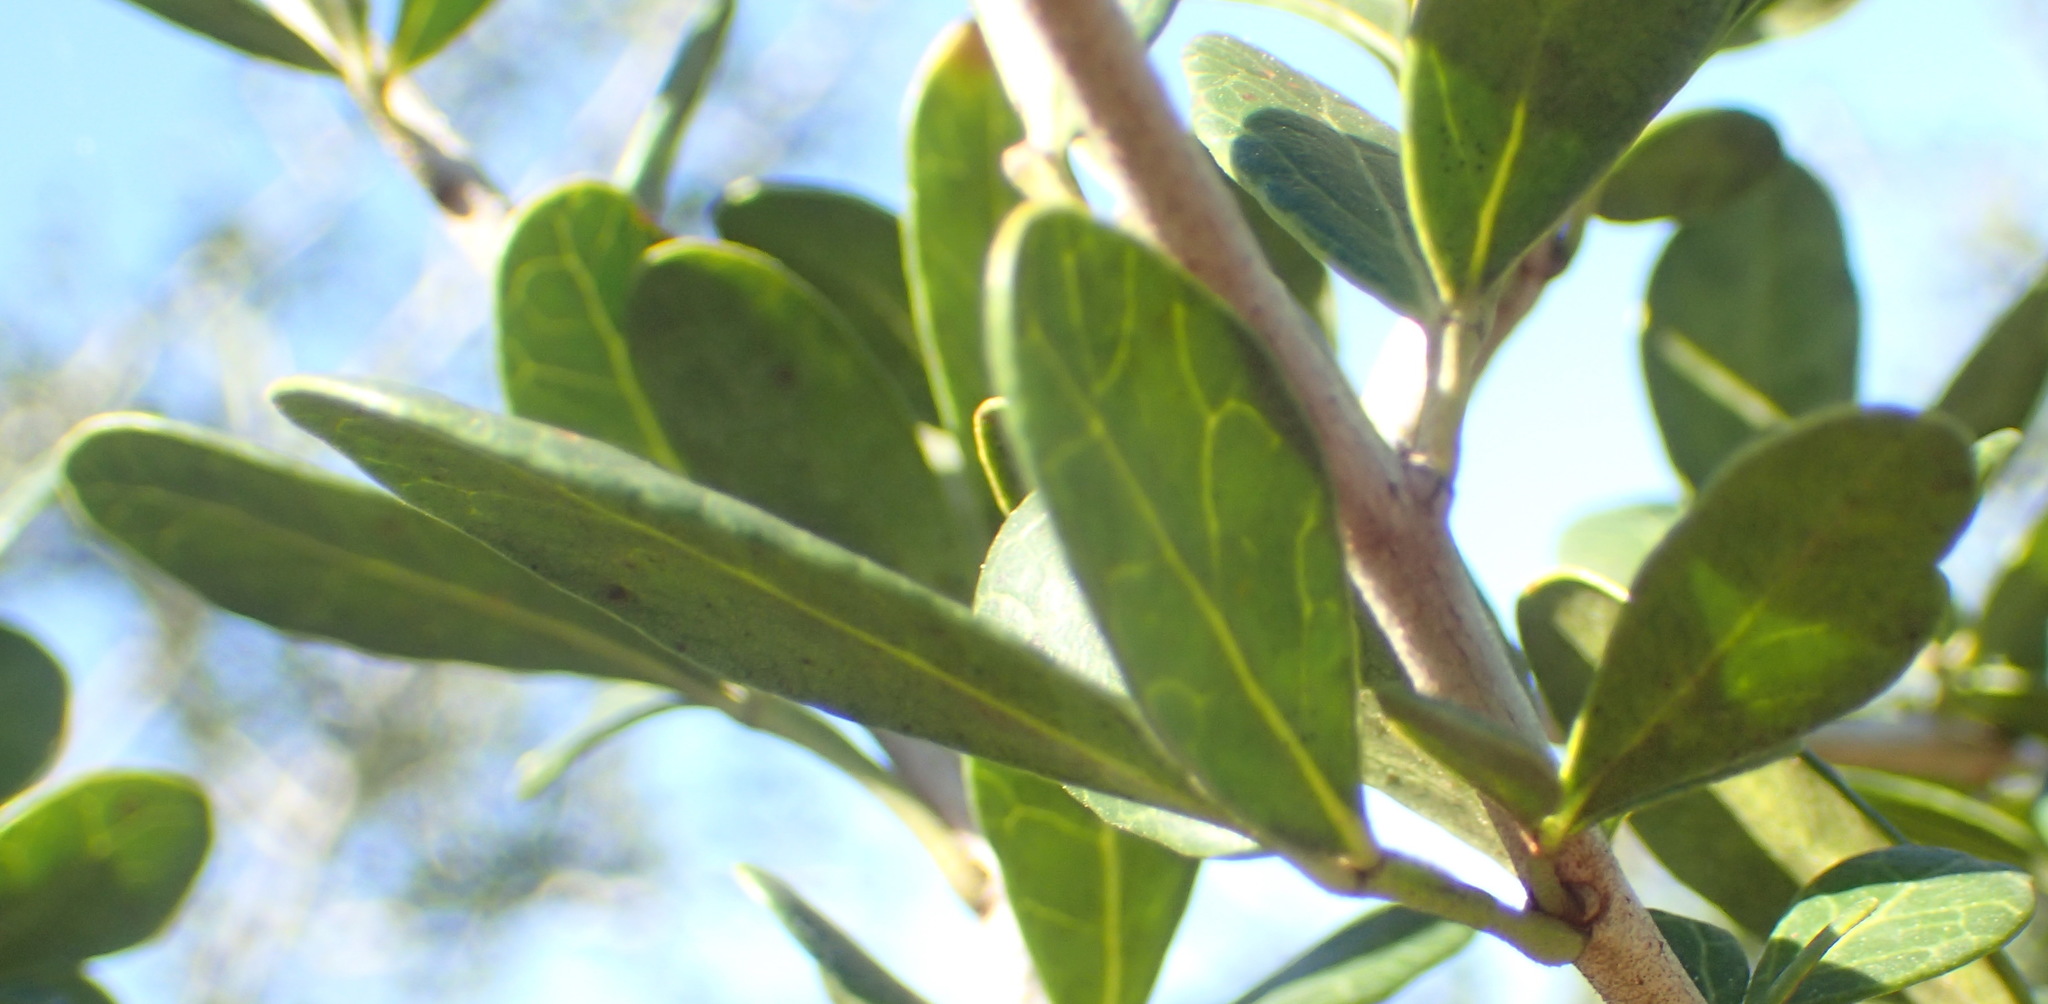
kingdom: Plantae
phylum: Tracheophyta
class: Magnoliopsida
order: Sapindales
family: Anacardiaceae
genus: Searsia
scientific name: Searsia pterota
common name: Winged currant
